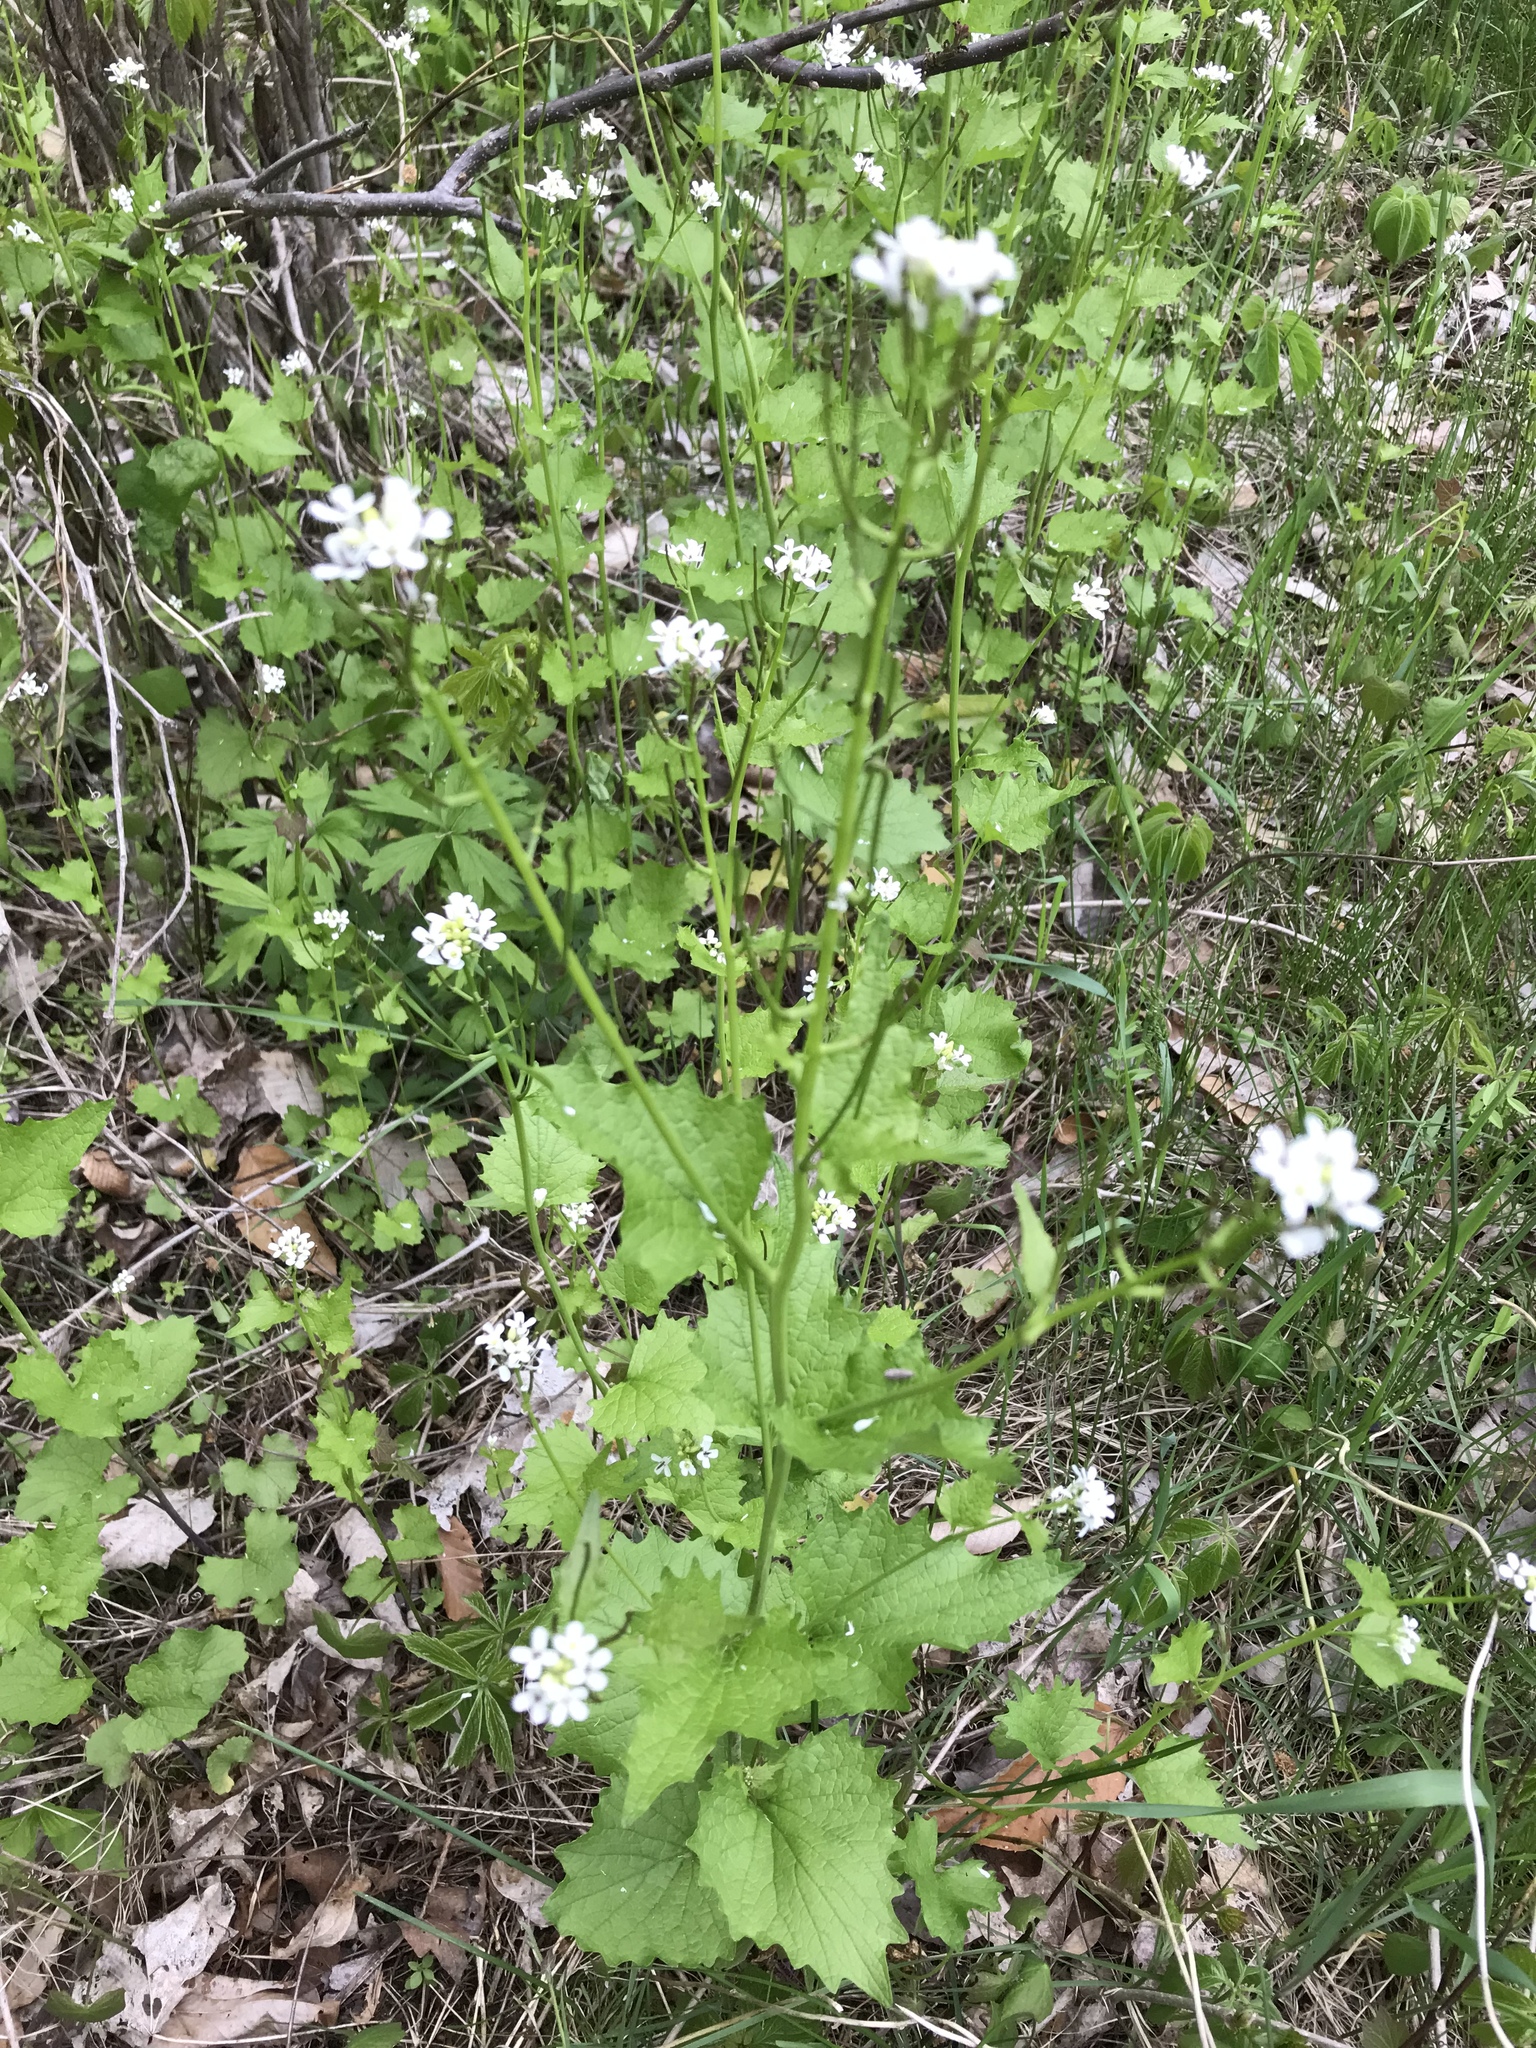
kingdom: Plantae
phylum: Tracheophyta
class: Magnoliopsida
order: Brassicales
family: Brassicaceae
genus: Alliaria
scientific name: Alliaria petiolata
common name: Garlic mustard
